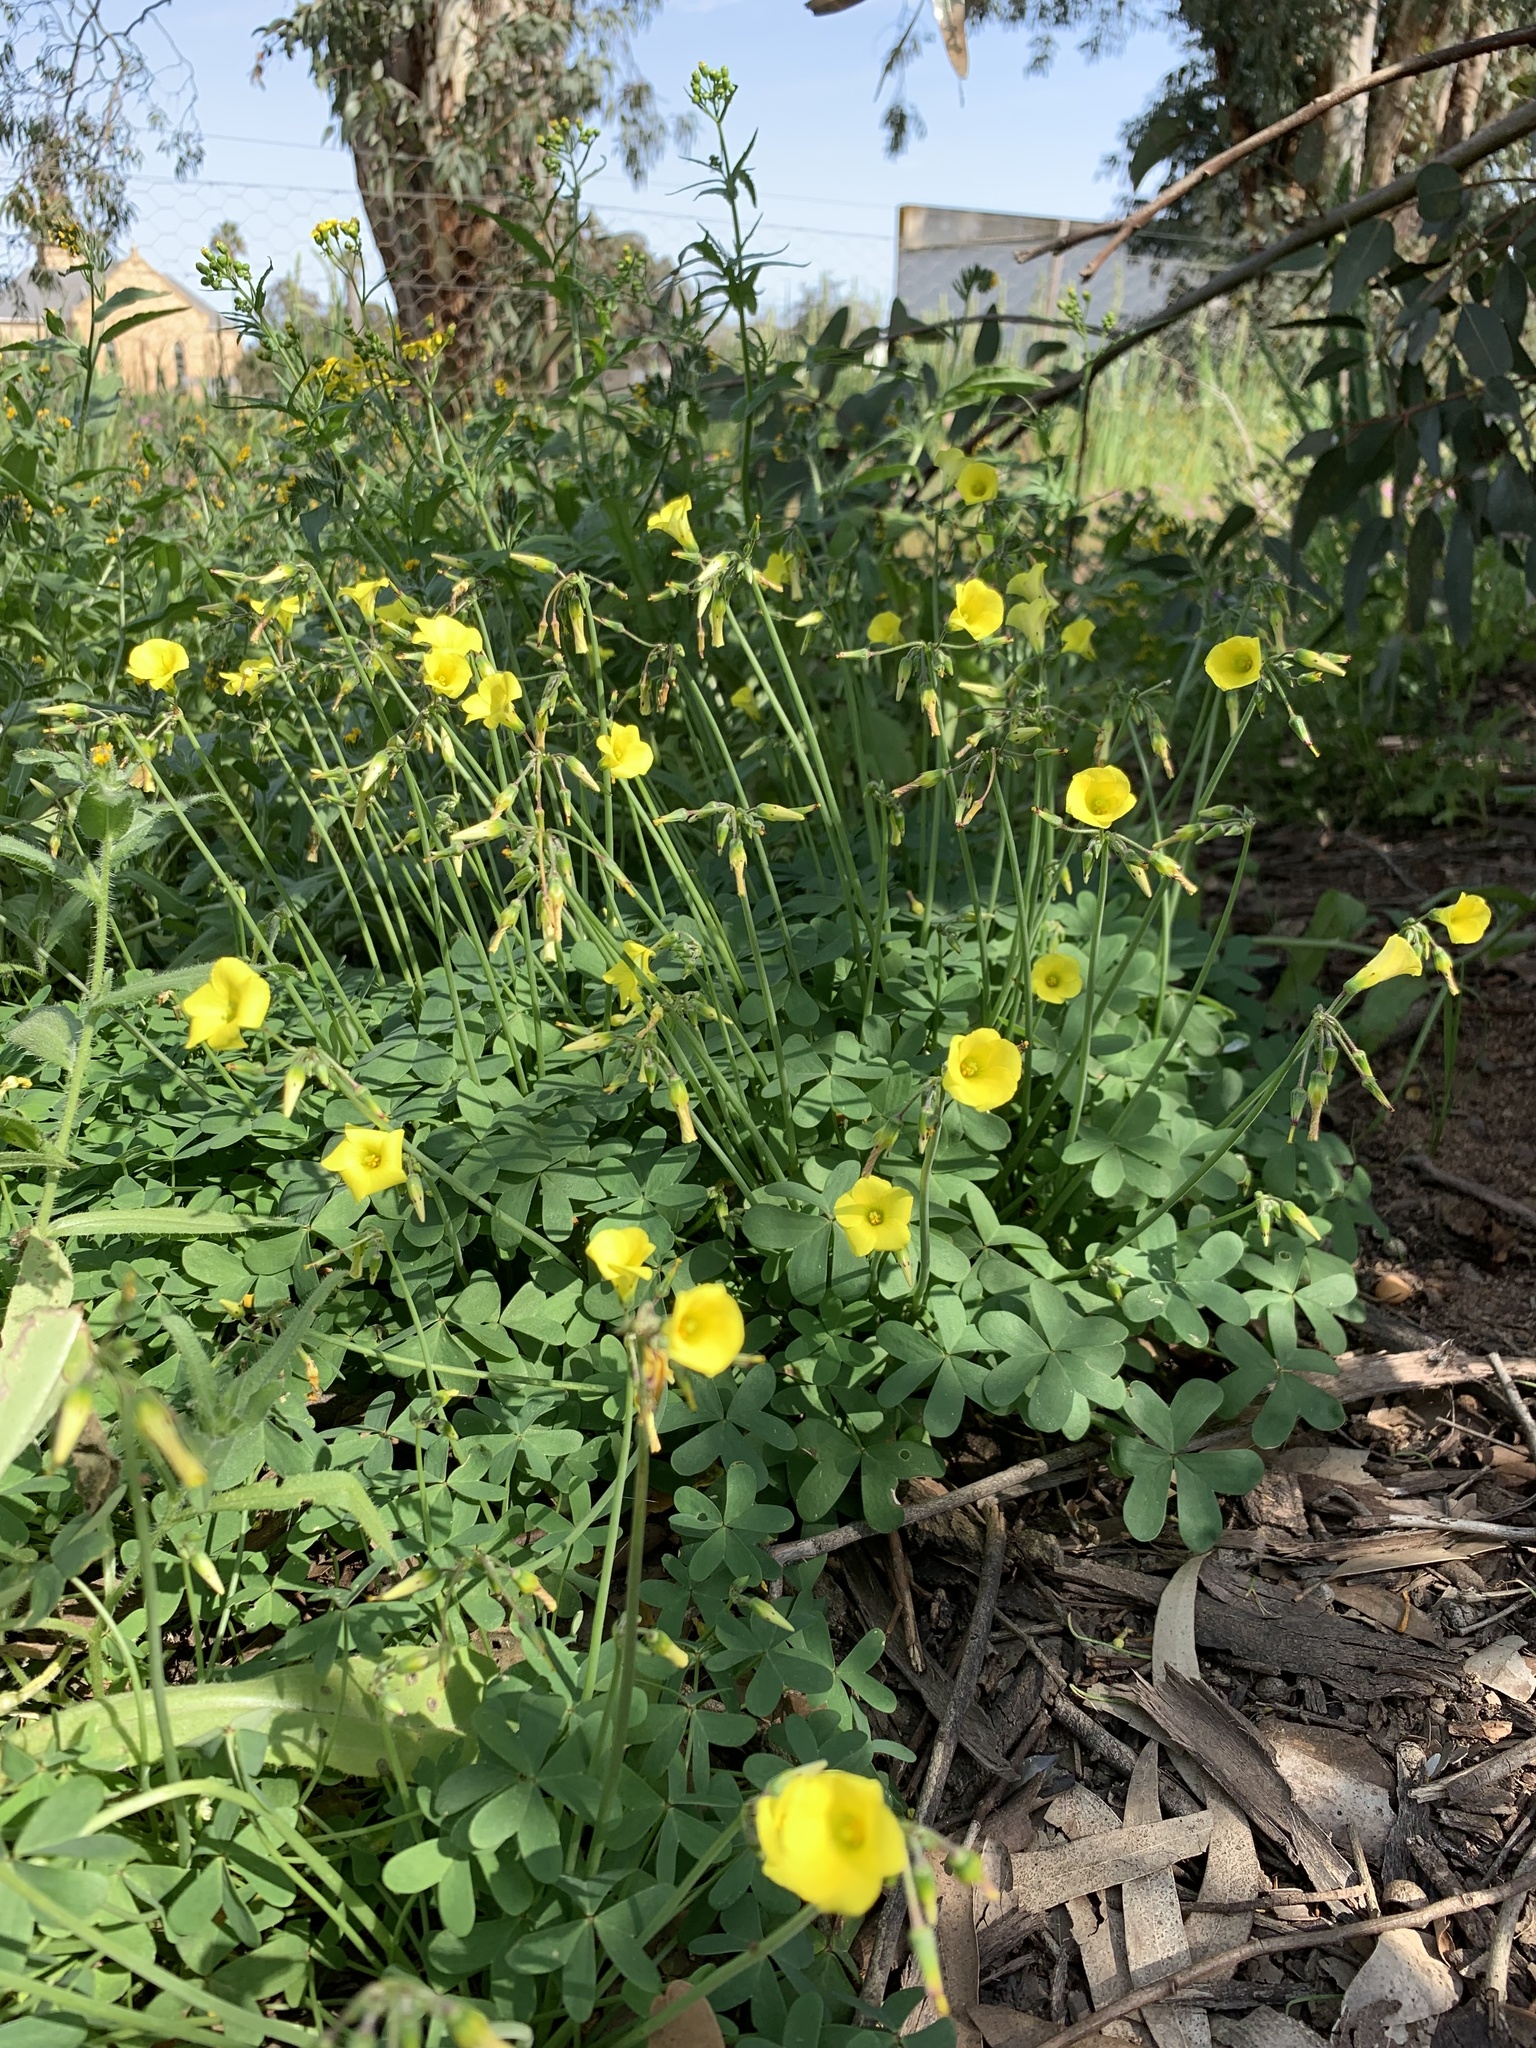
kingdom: Plantae
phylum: Tracheophyta
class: Magnoliopsida
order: Oxalidales
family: Oxalidaceae
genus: Oxalis
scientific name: Oxalis pes-caprae
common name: Bermuda-buttercup
